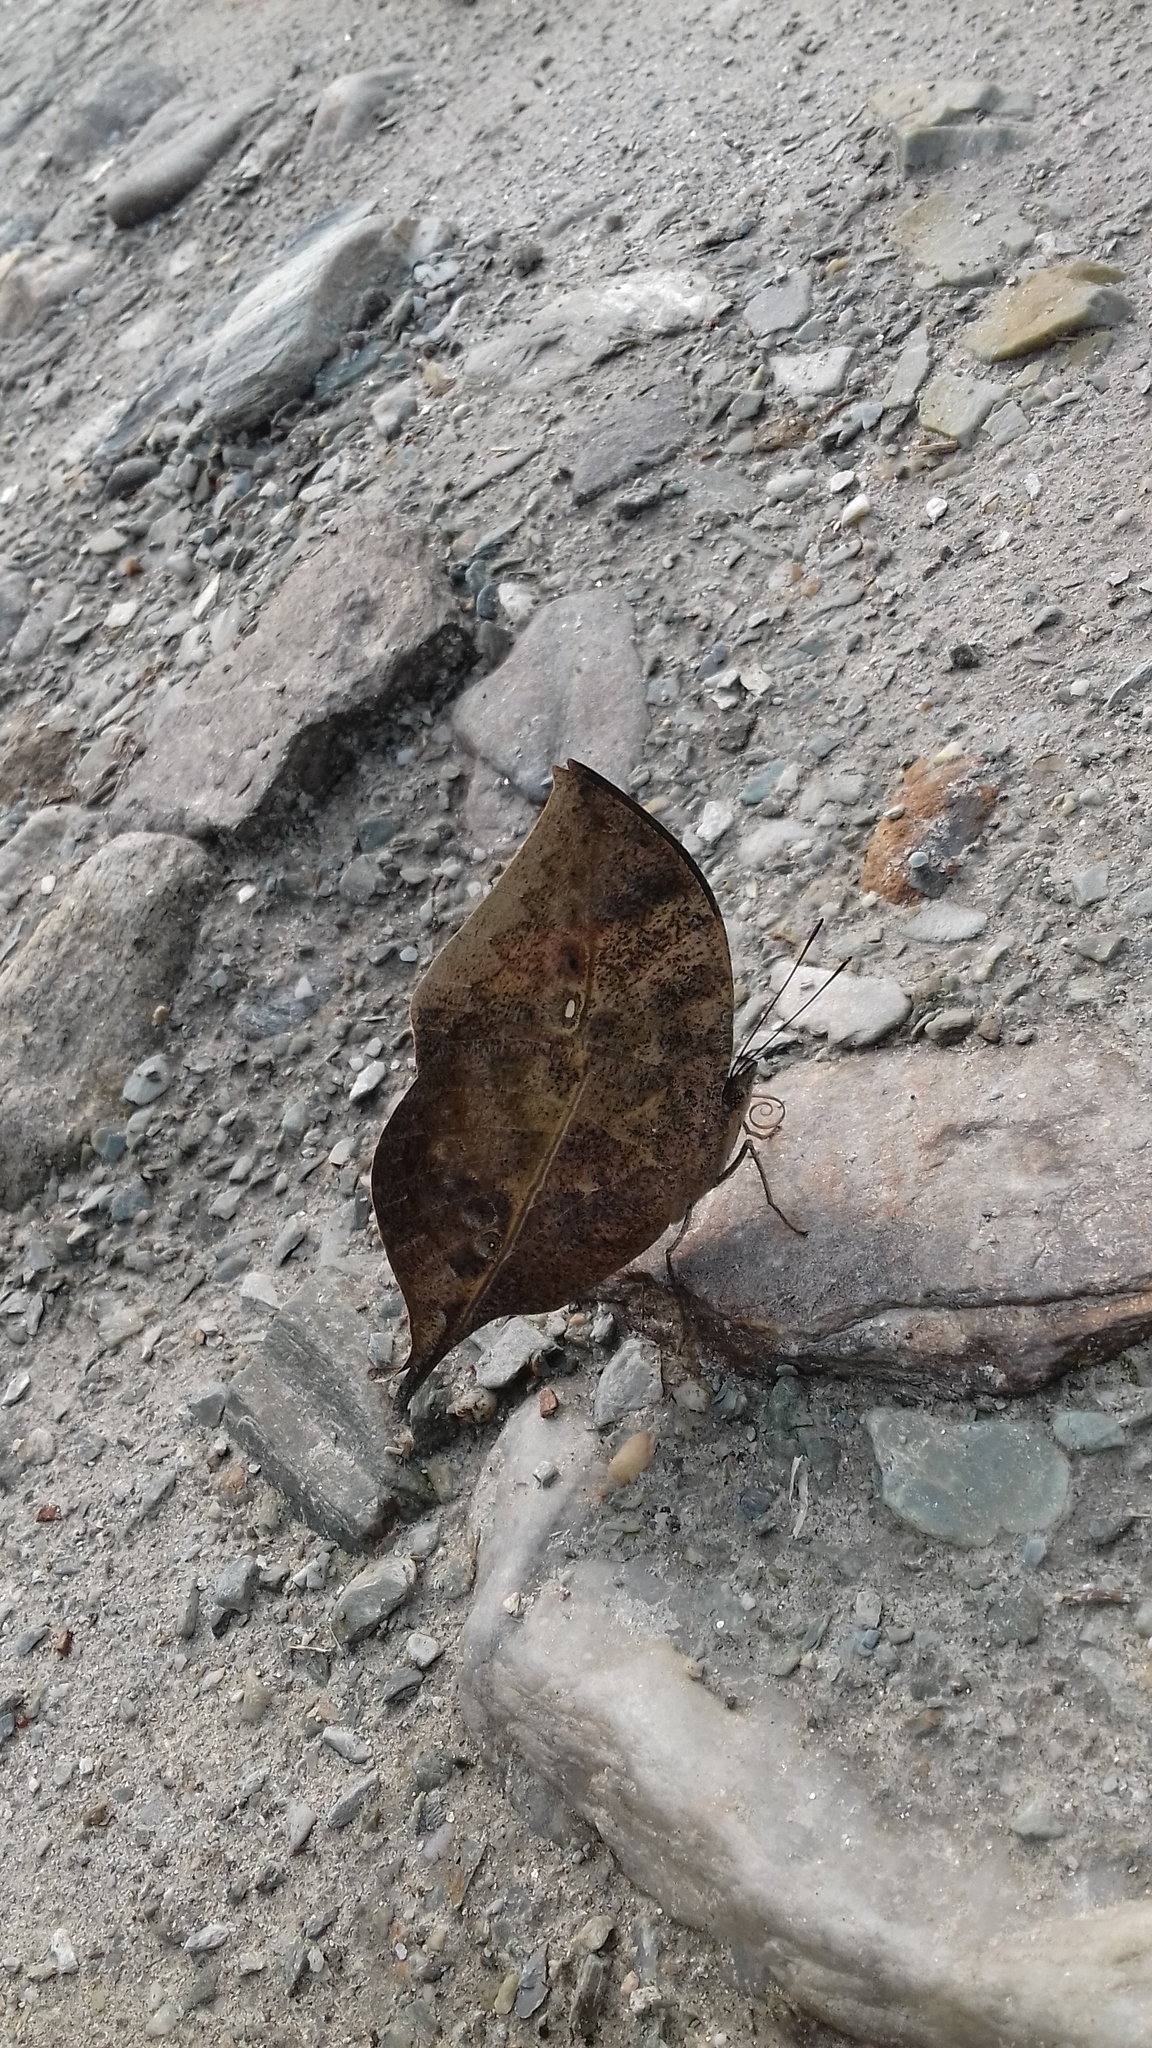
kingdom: Animalia
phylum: Arthropoda
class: Insecta
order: Lepidoptera
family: Nymphalidae
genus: Kallima
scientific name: Kallima inachus
